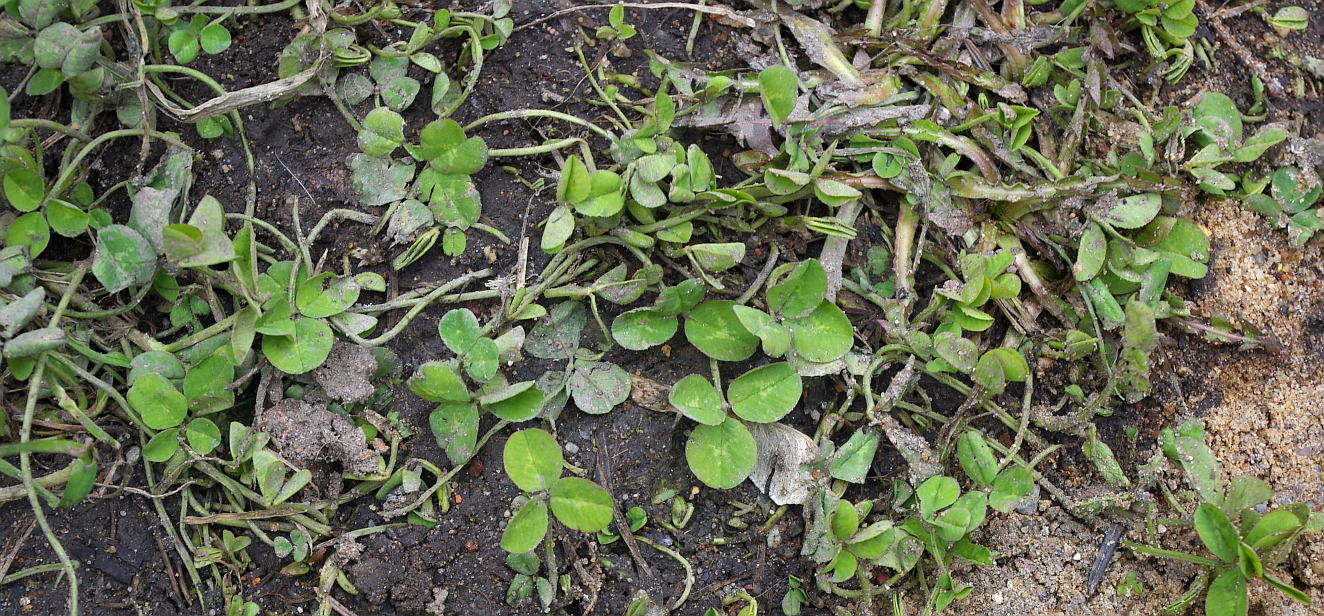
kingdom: Plantae
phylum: Tracheophyta
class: Magnoliopsida
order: Fabales
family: Fabaceae
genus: Trifolium
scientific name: Trifolium repens
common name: White clover
